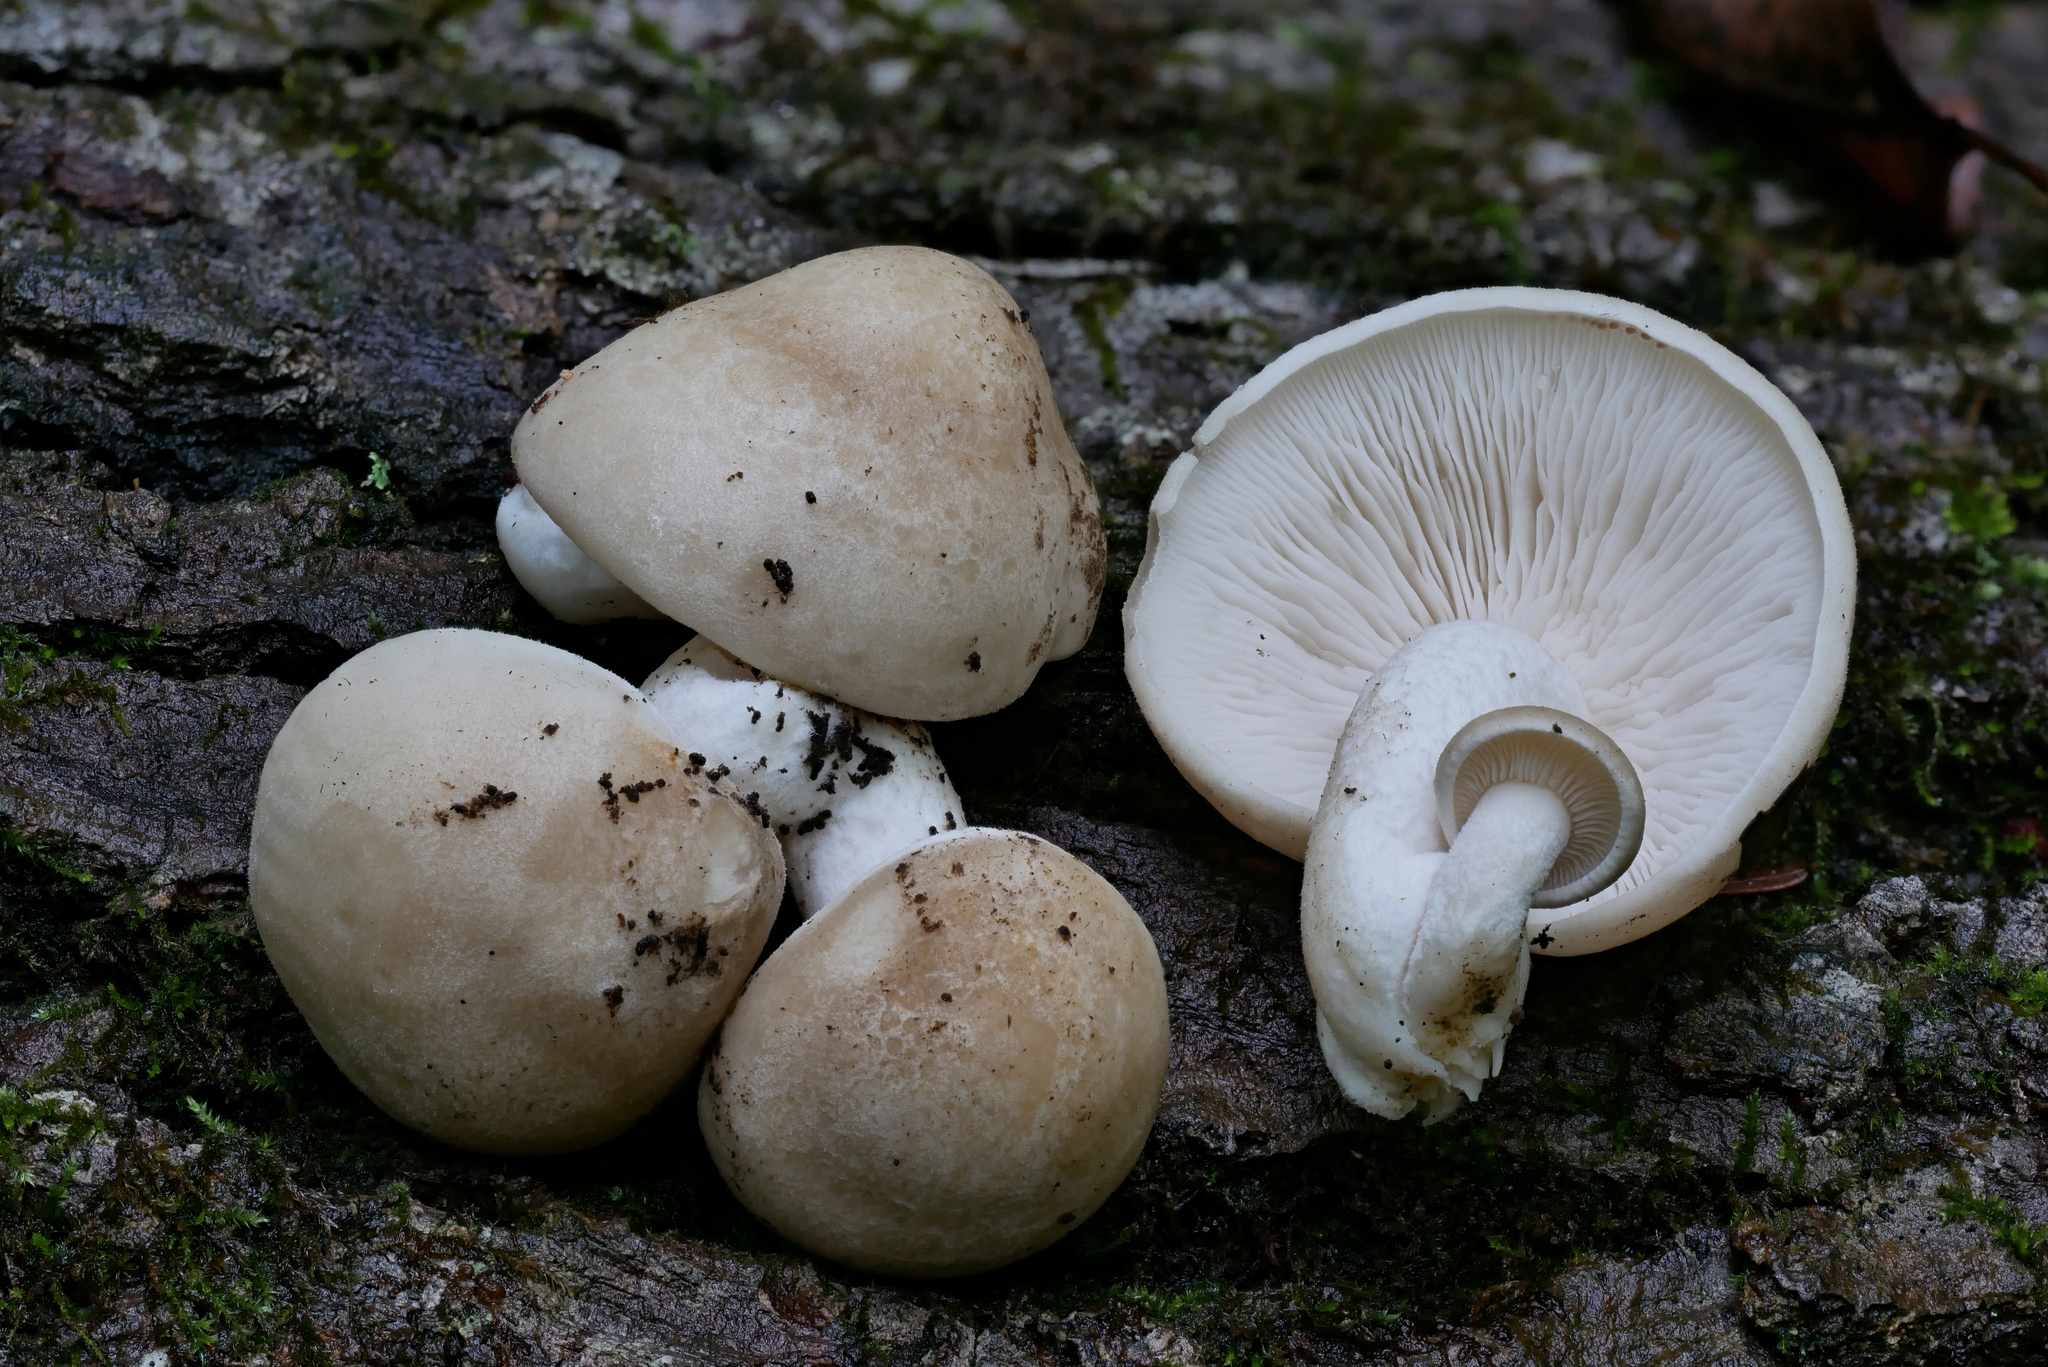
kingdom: Fungi
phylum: Basidiomycota
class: Agaricomycetes
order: Agaricales
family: Lyophyllaceae
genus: Hypsizygus
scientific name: Hypsizygus marmoreus
